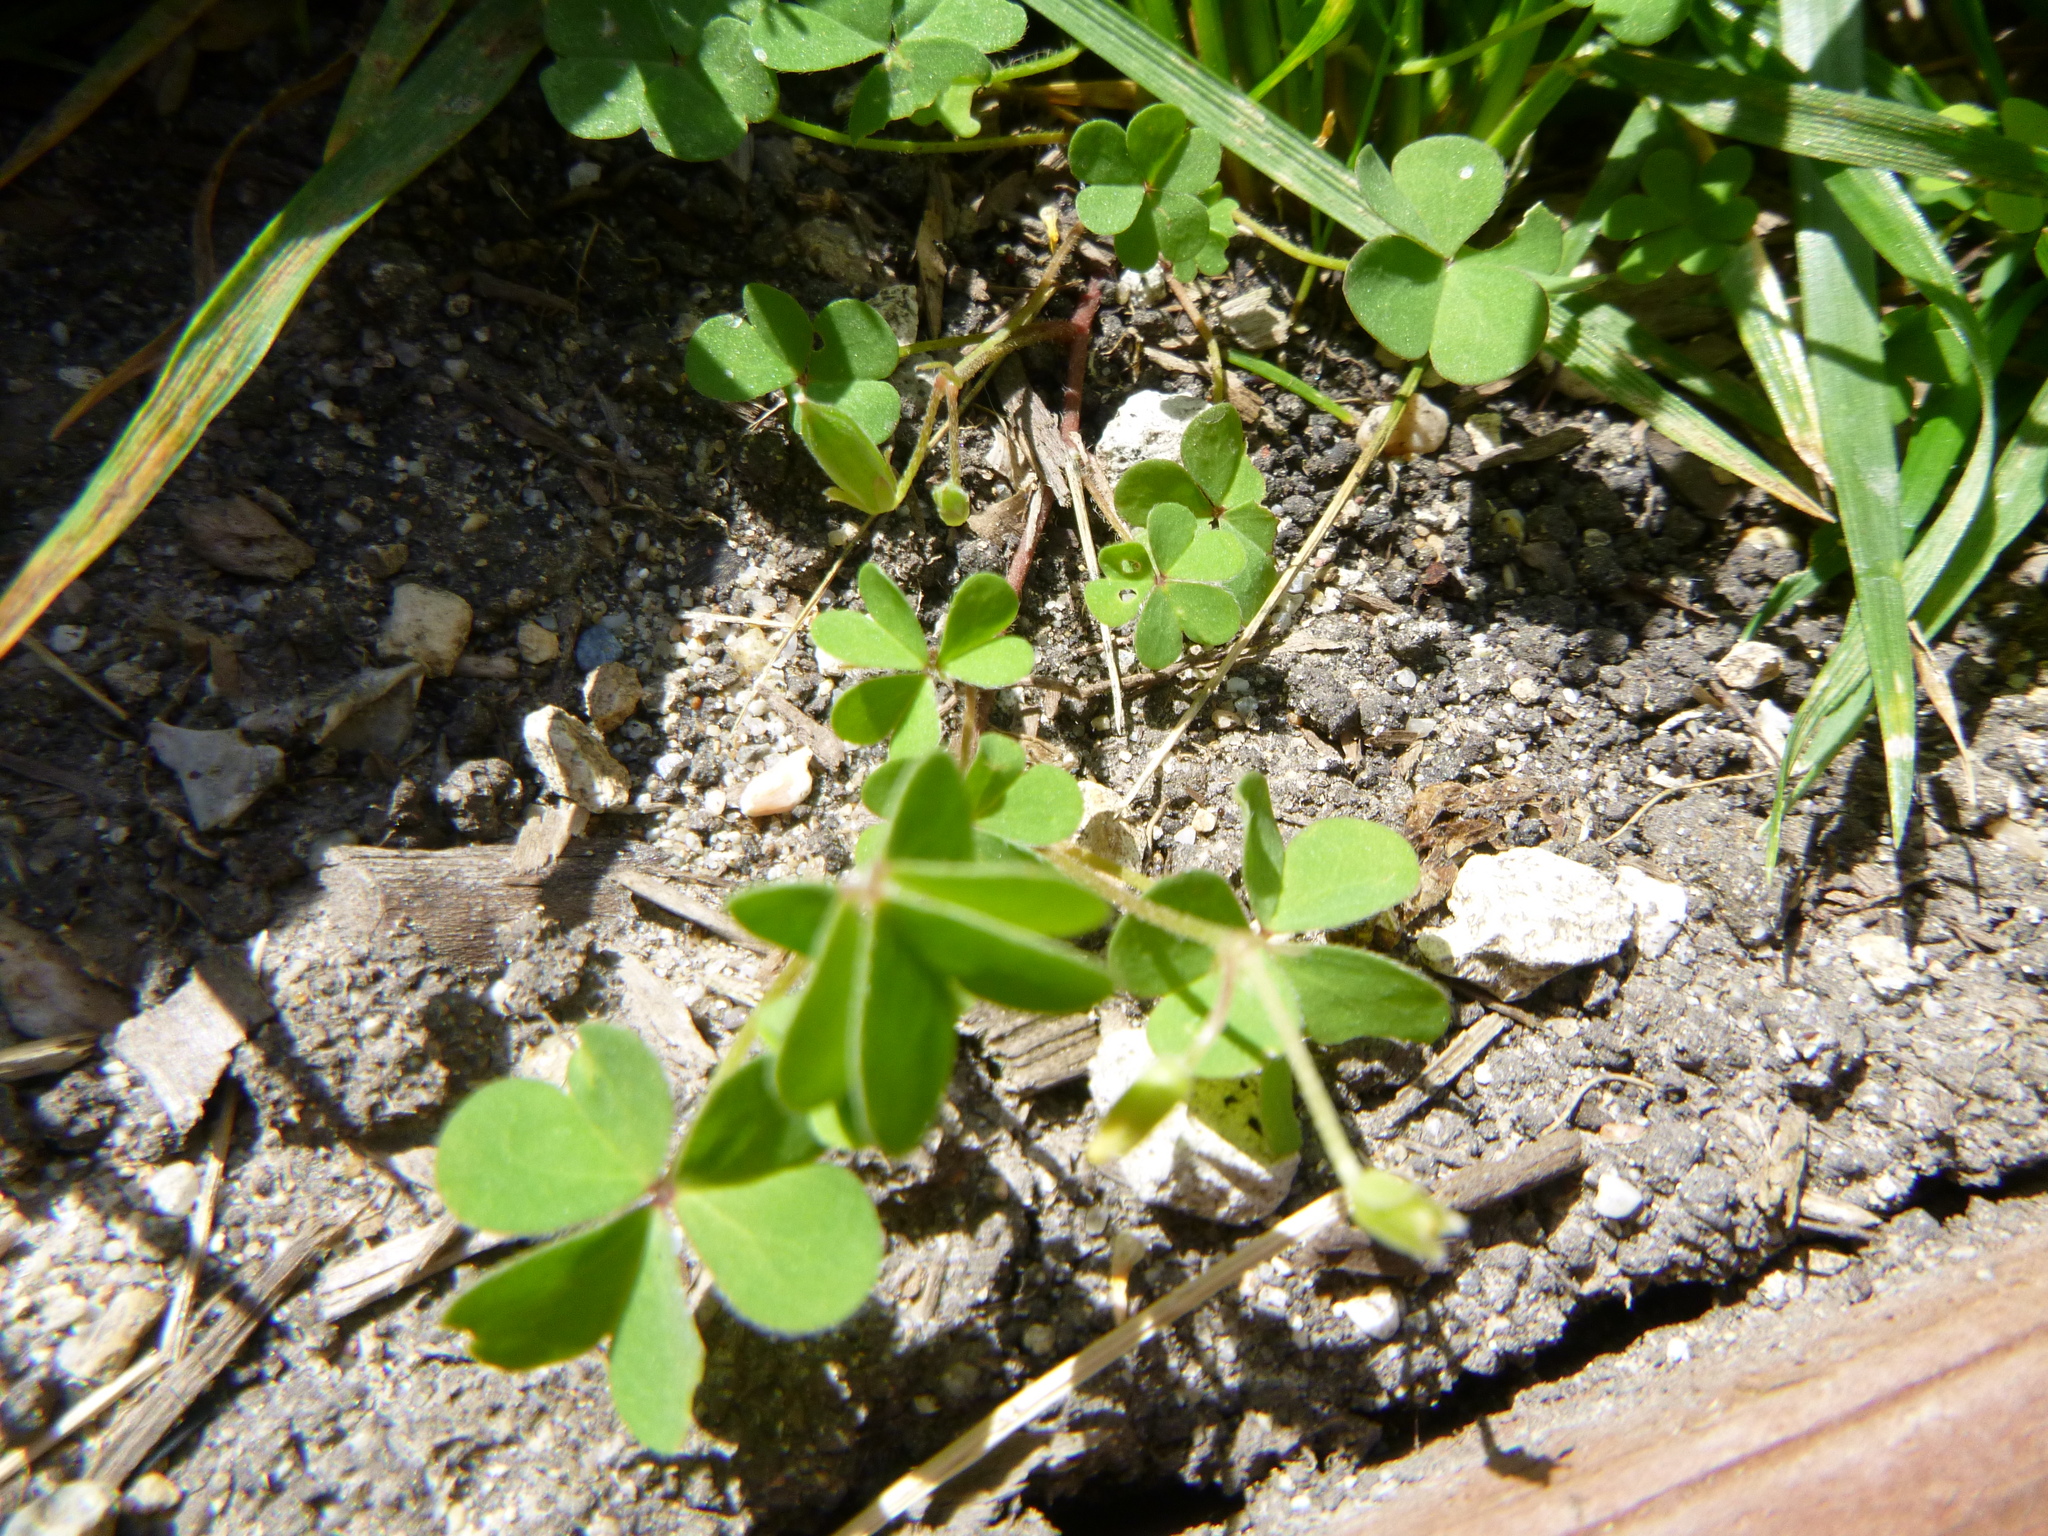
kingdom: Plantae
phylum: Tracheophyta
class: Magnoliopsida
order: Oxalidales
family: Oxalidaceae
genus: Oxalis
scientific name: Oxalis corniculata
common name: Procumbent yellow-sorrel
